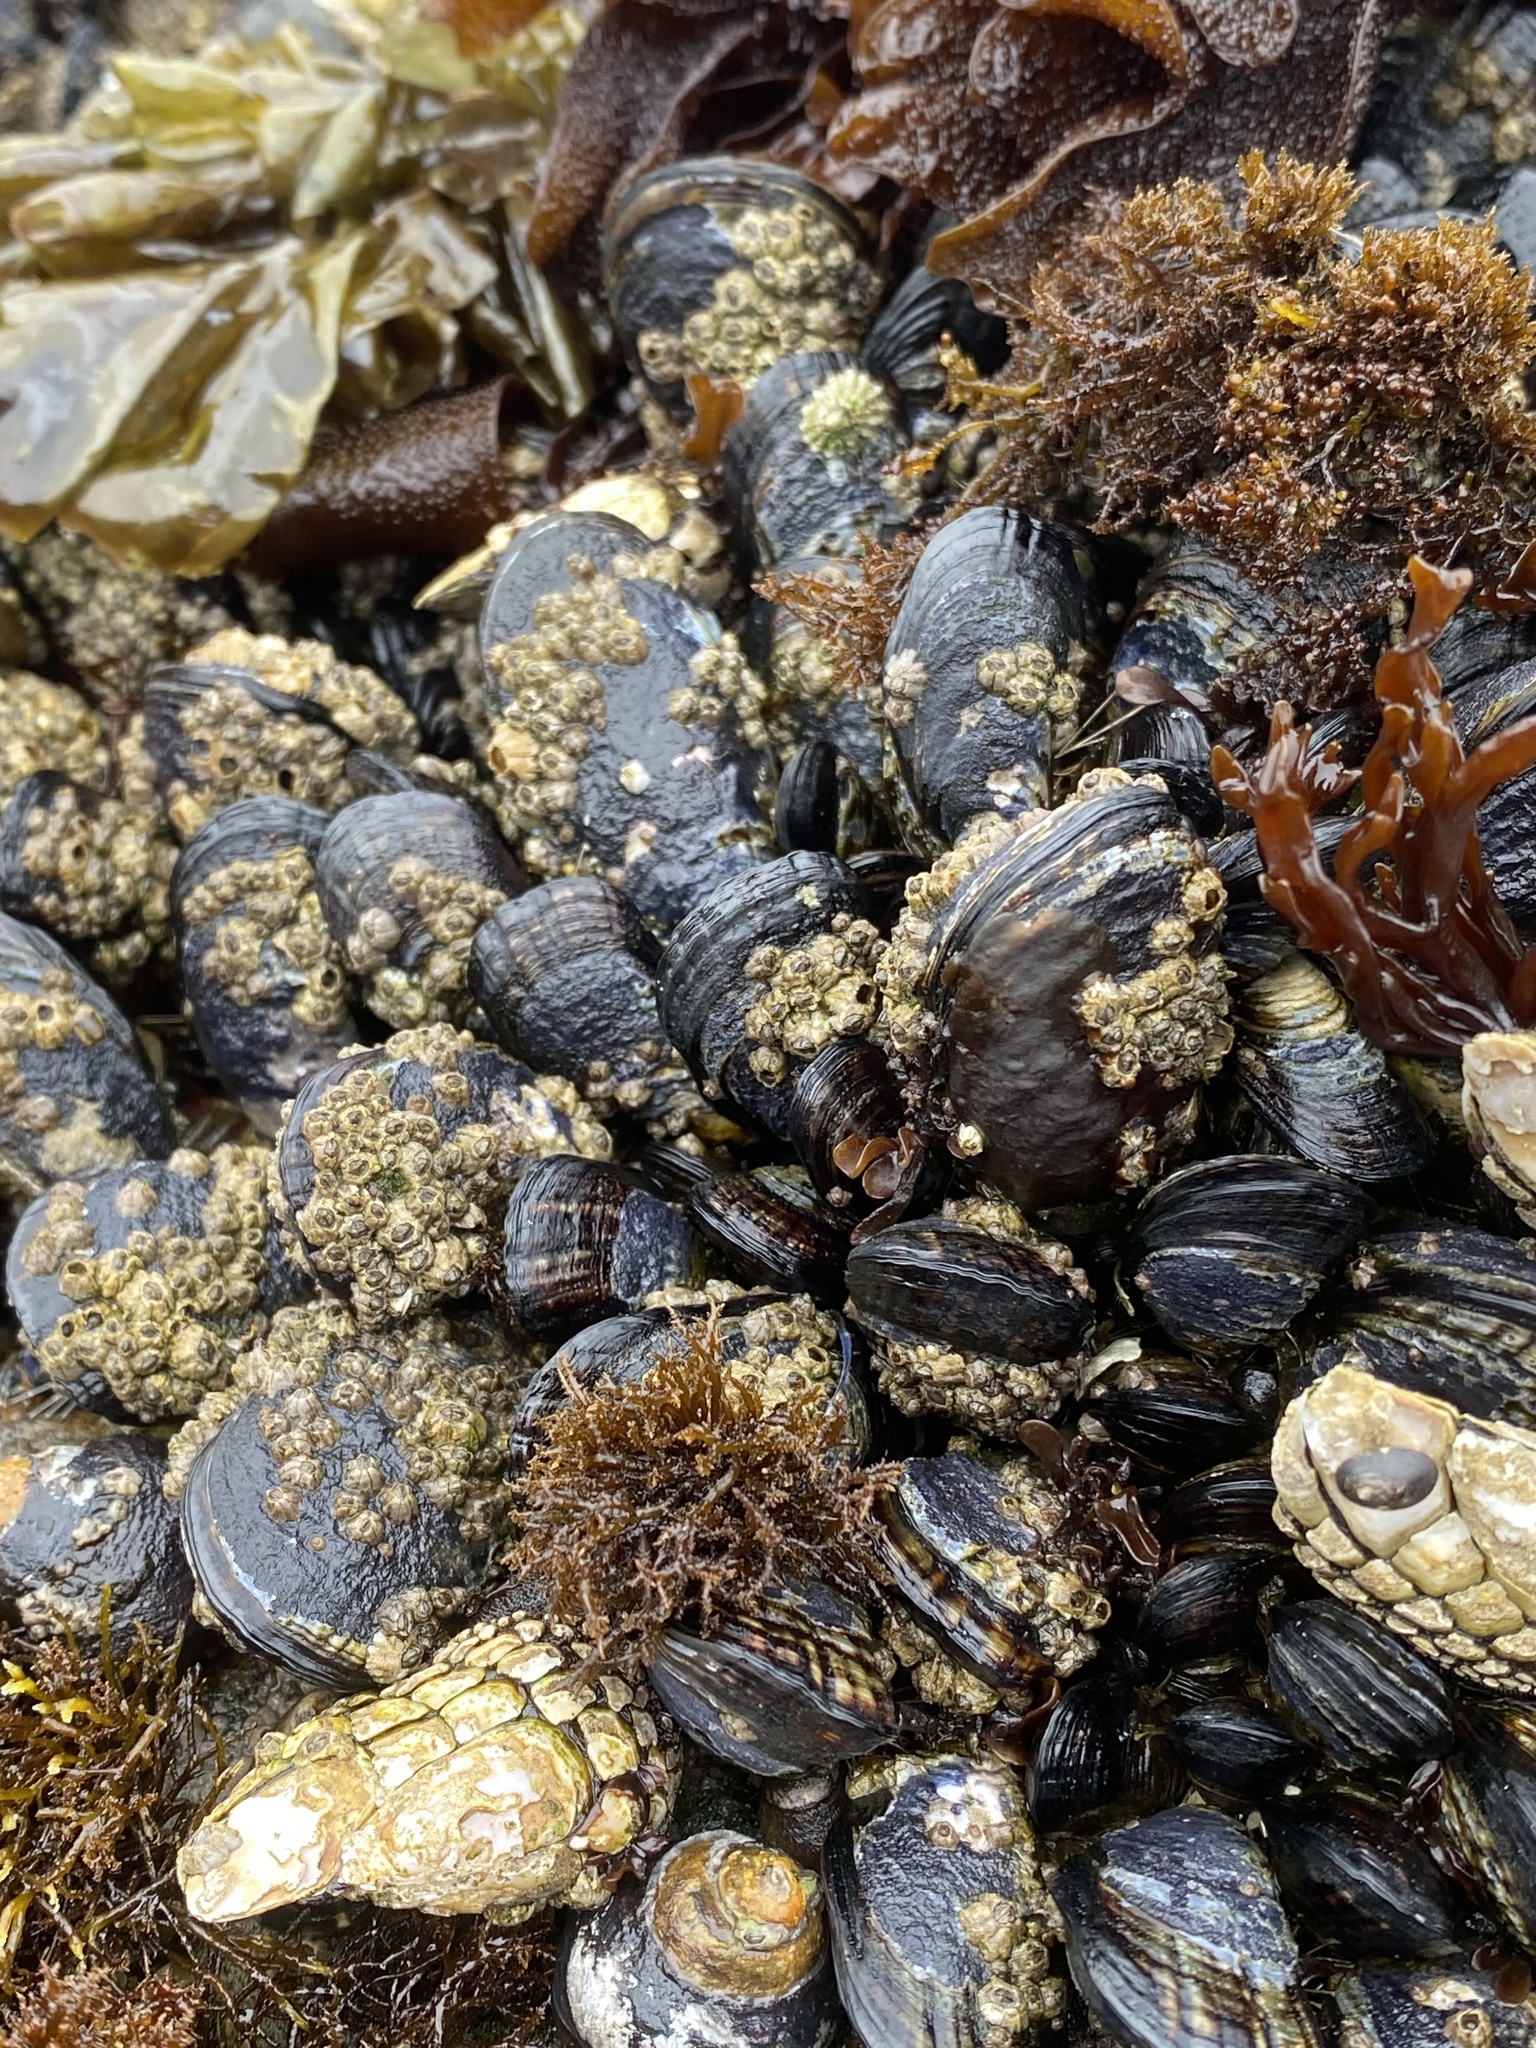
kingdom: Animalia
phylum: Mollusca
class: Bivalvia
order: Mytilida
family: Mytilidae
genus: Mytilus
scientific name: Mytilus californianus
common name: California mussel
